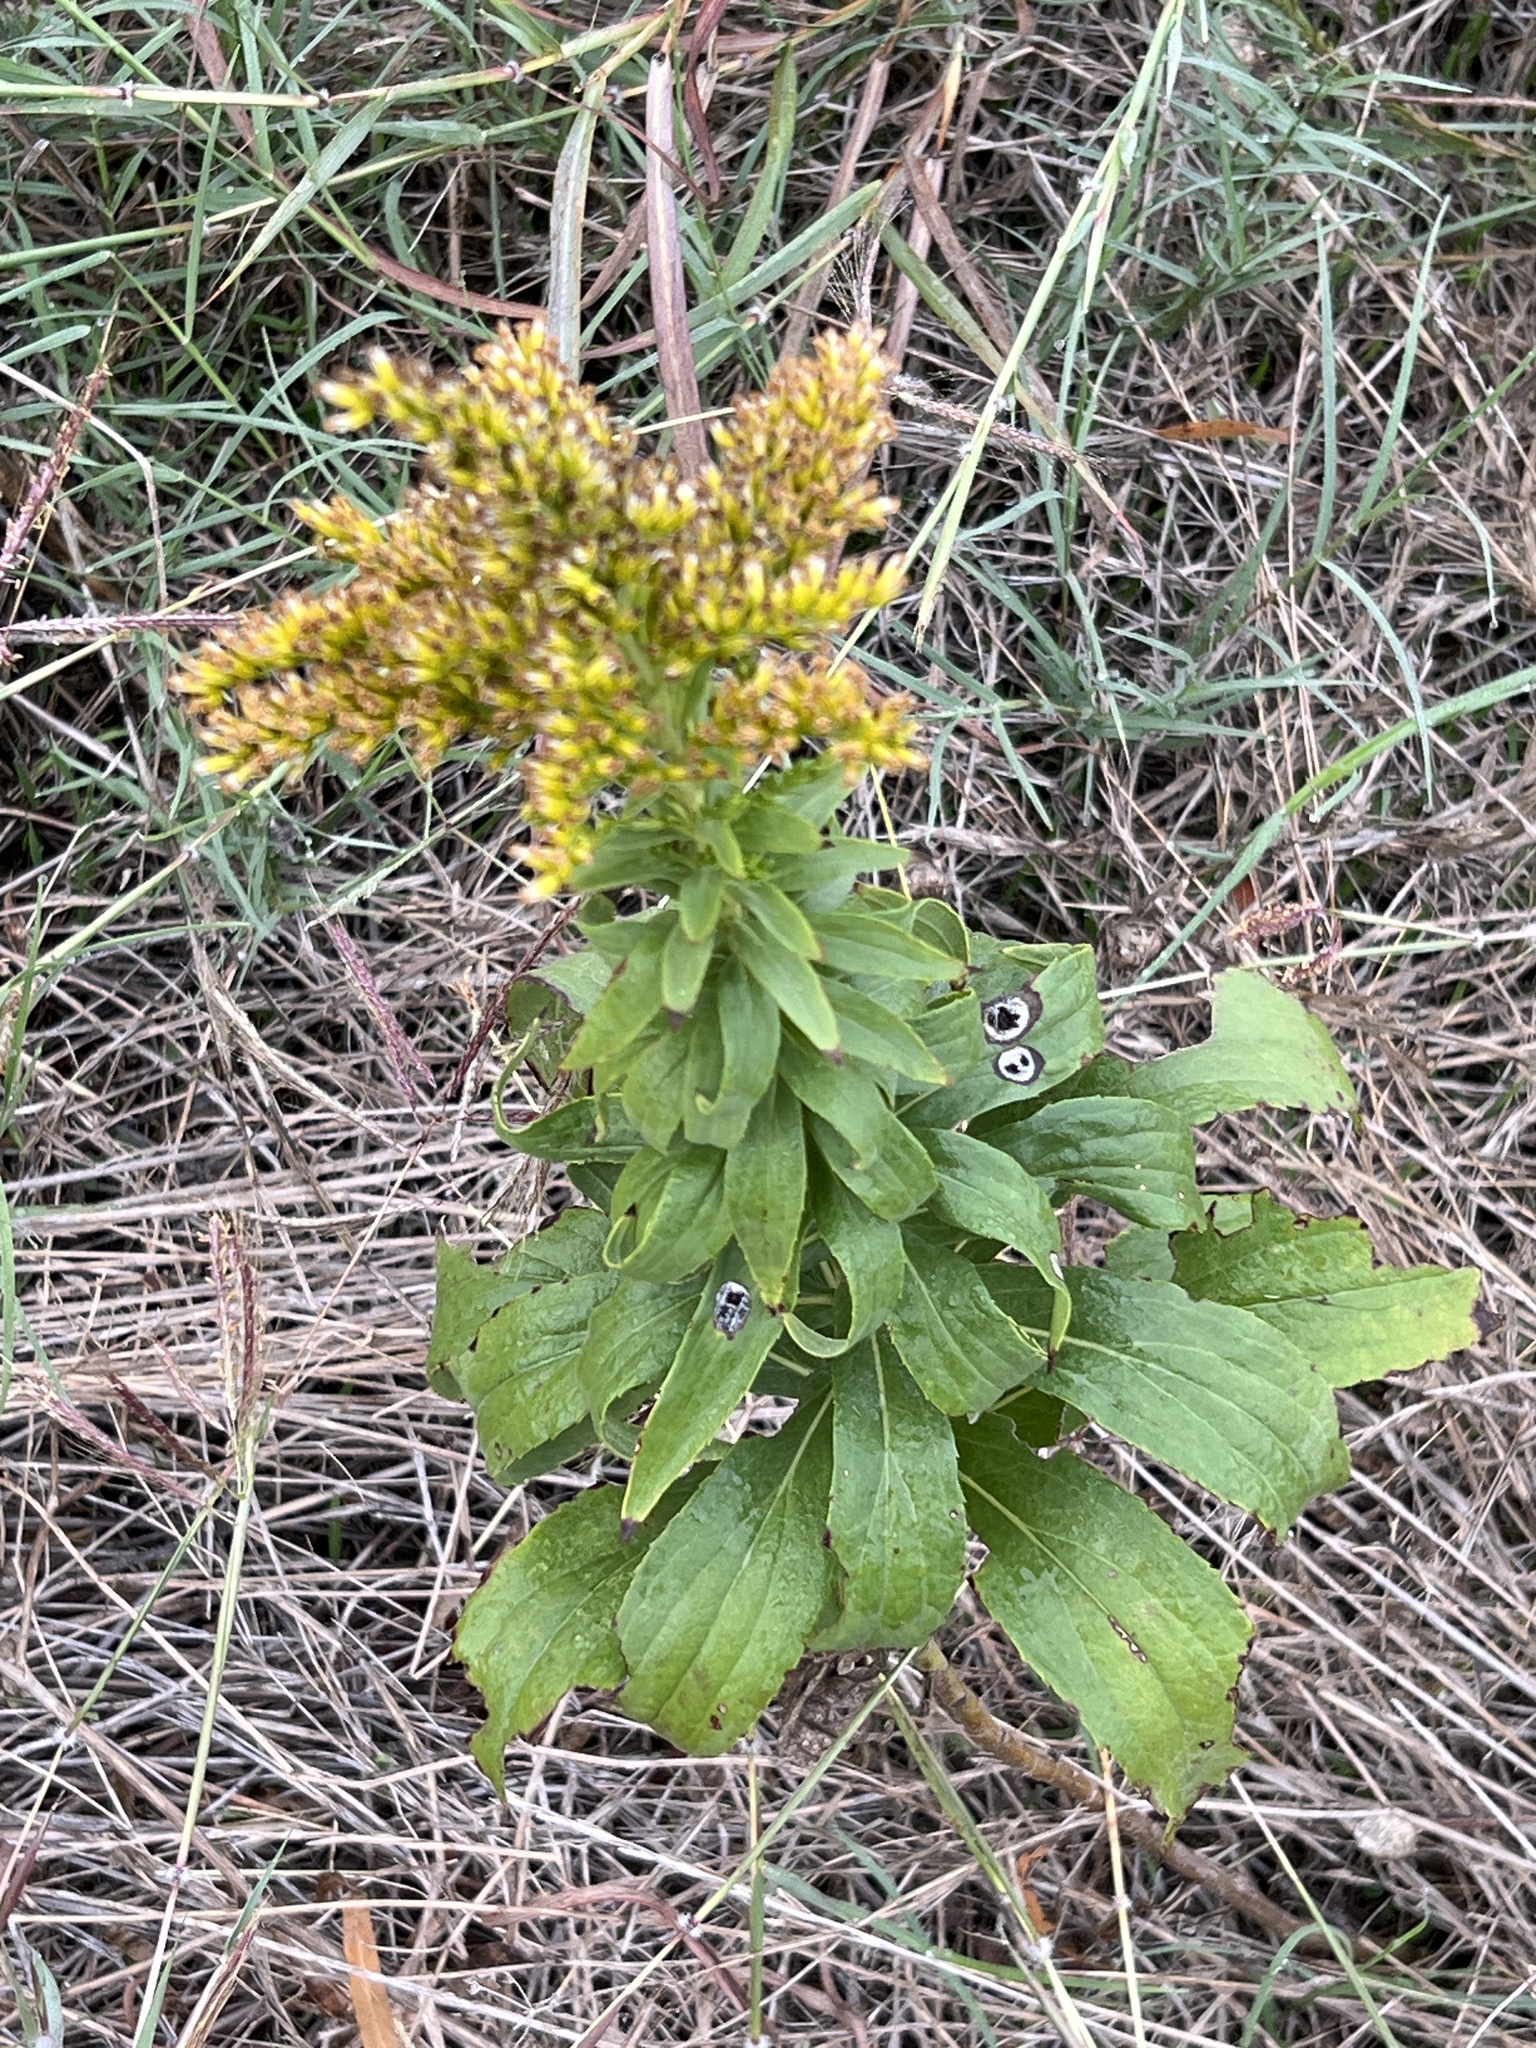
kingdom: Plantae
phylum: Tracheophyta
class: Magnoliopsida
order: Asterales
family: Asteraceae
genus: Solidago
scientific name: Solidago altissima
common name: Late goldenrod
